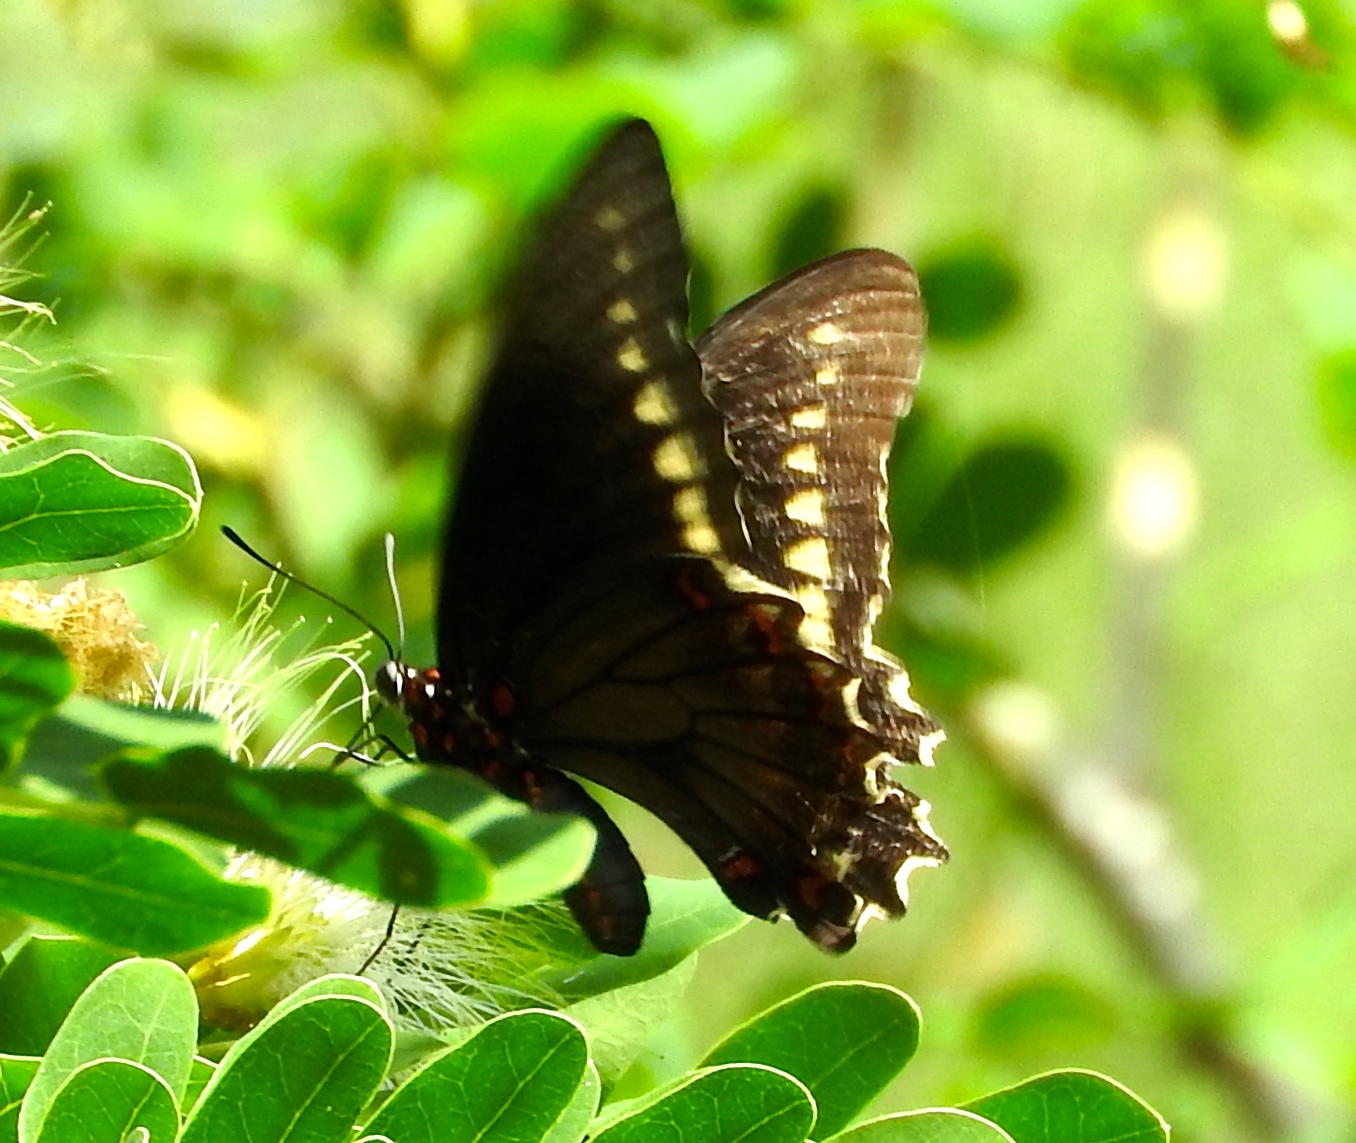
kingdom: Animalia
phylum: Arthropoda
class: Insecta
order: Lepidoptera
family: Papilionidae
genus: Battus
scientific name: Battus polydamas
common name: Polydamas swallowtail
